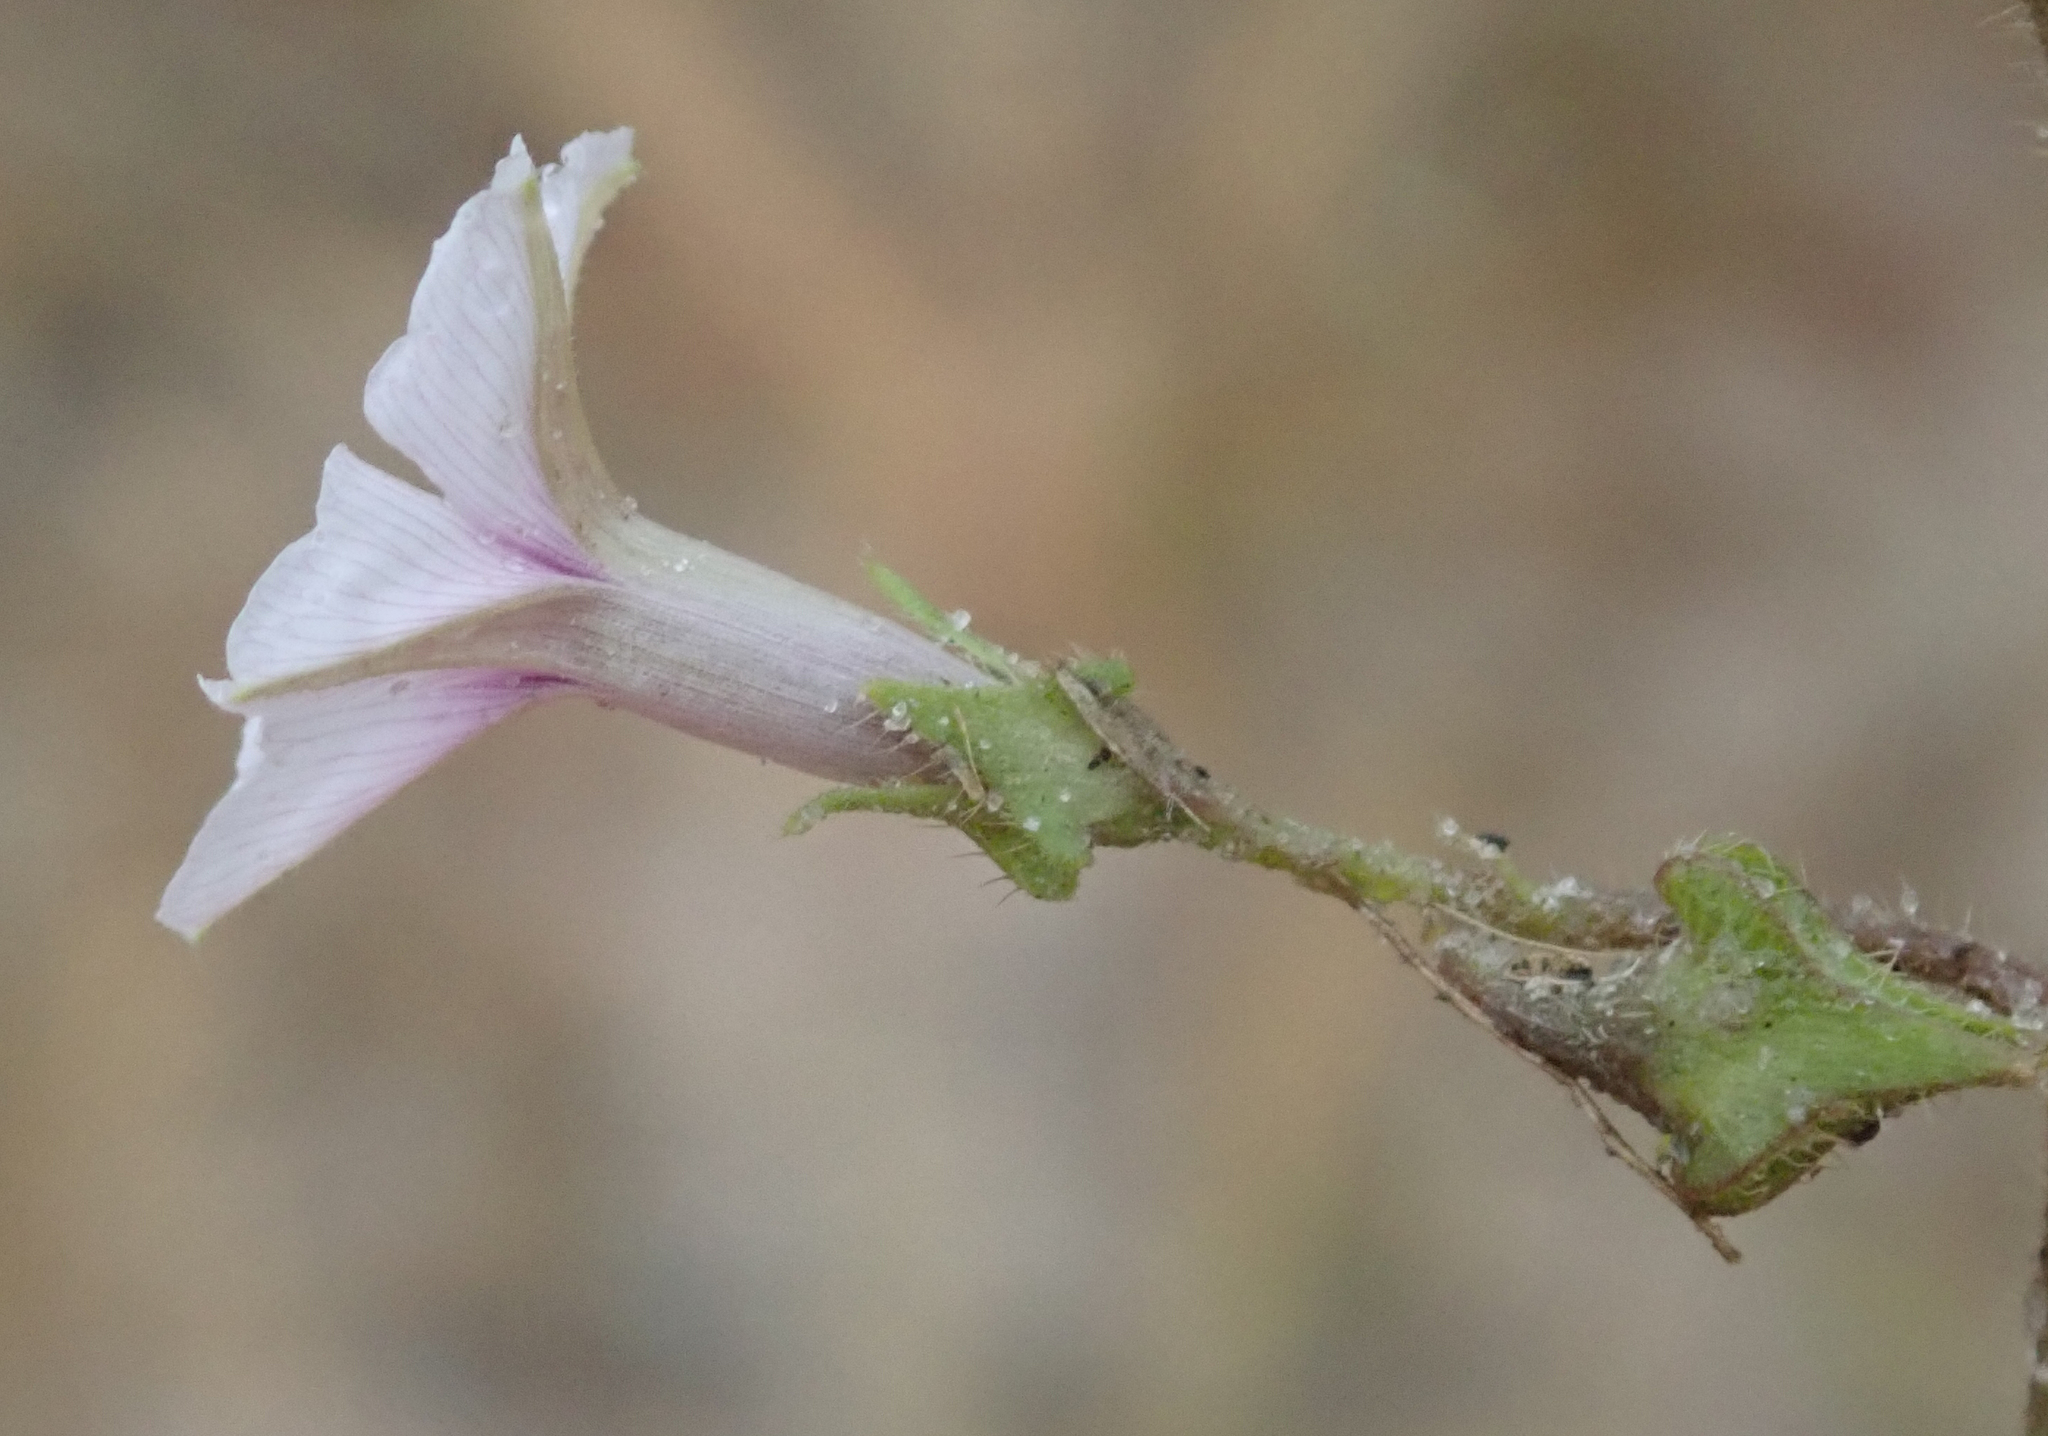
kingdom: Plantae
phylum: Tracheophyta
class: Magnoliopsida
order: Solanales
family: Convolvulaceae
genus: Ipomoea
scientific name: Ipomoea sinensis
